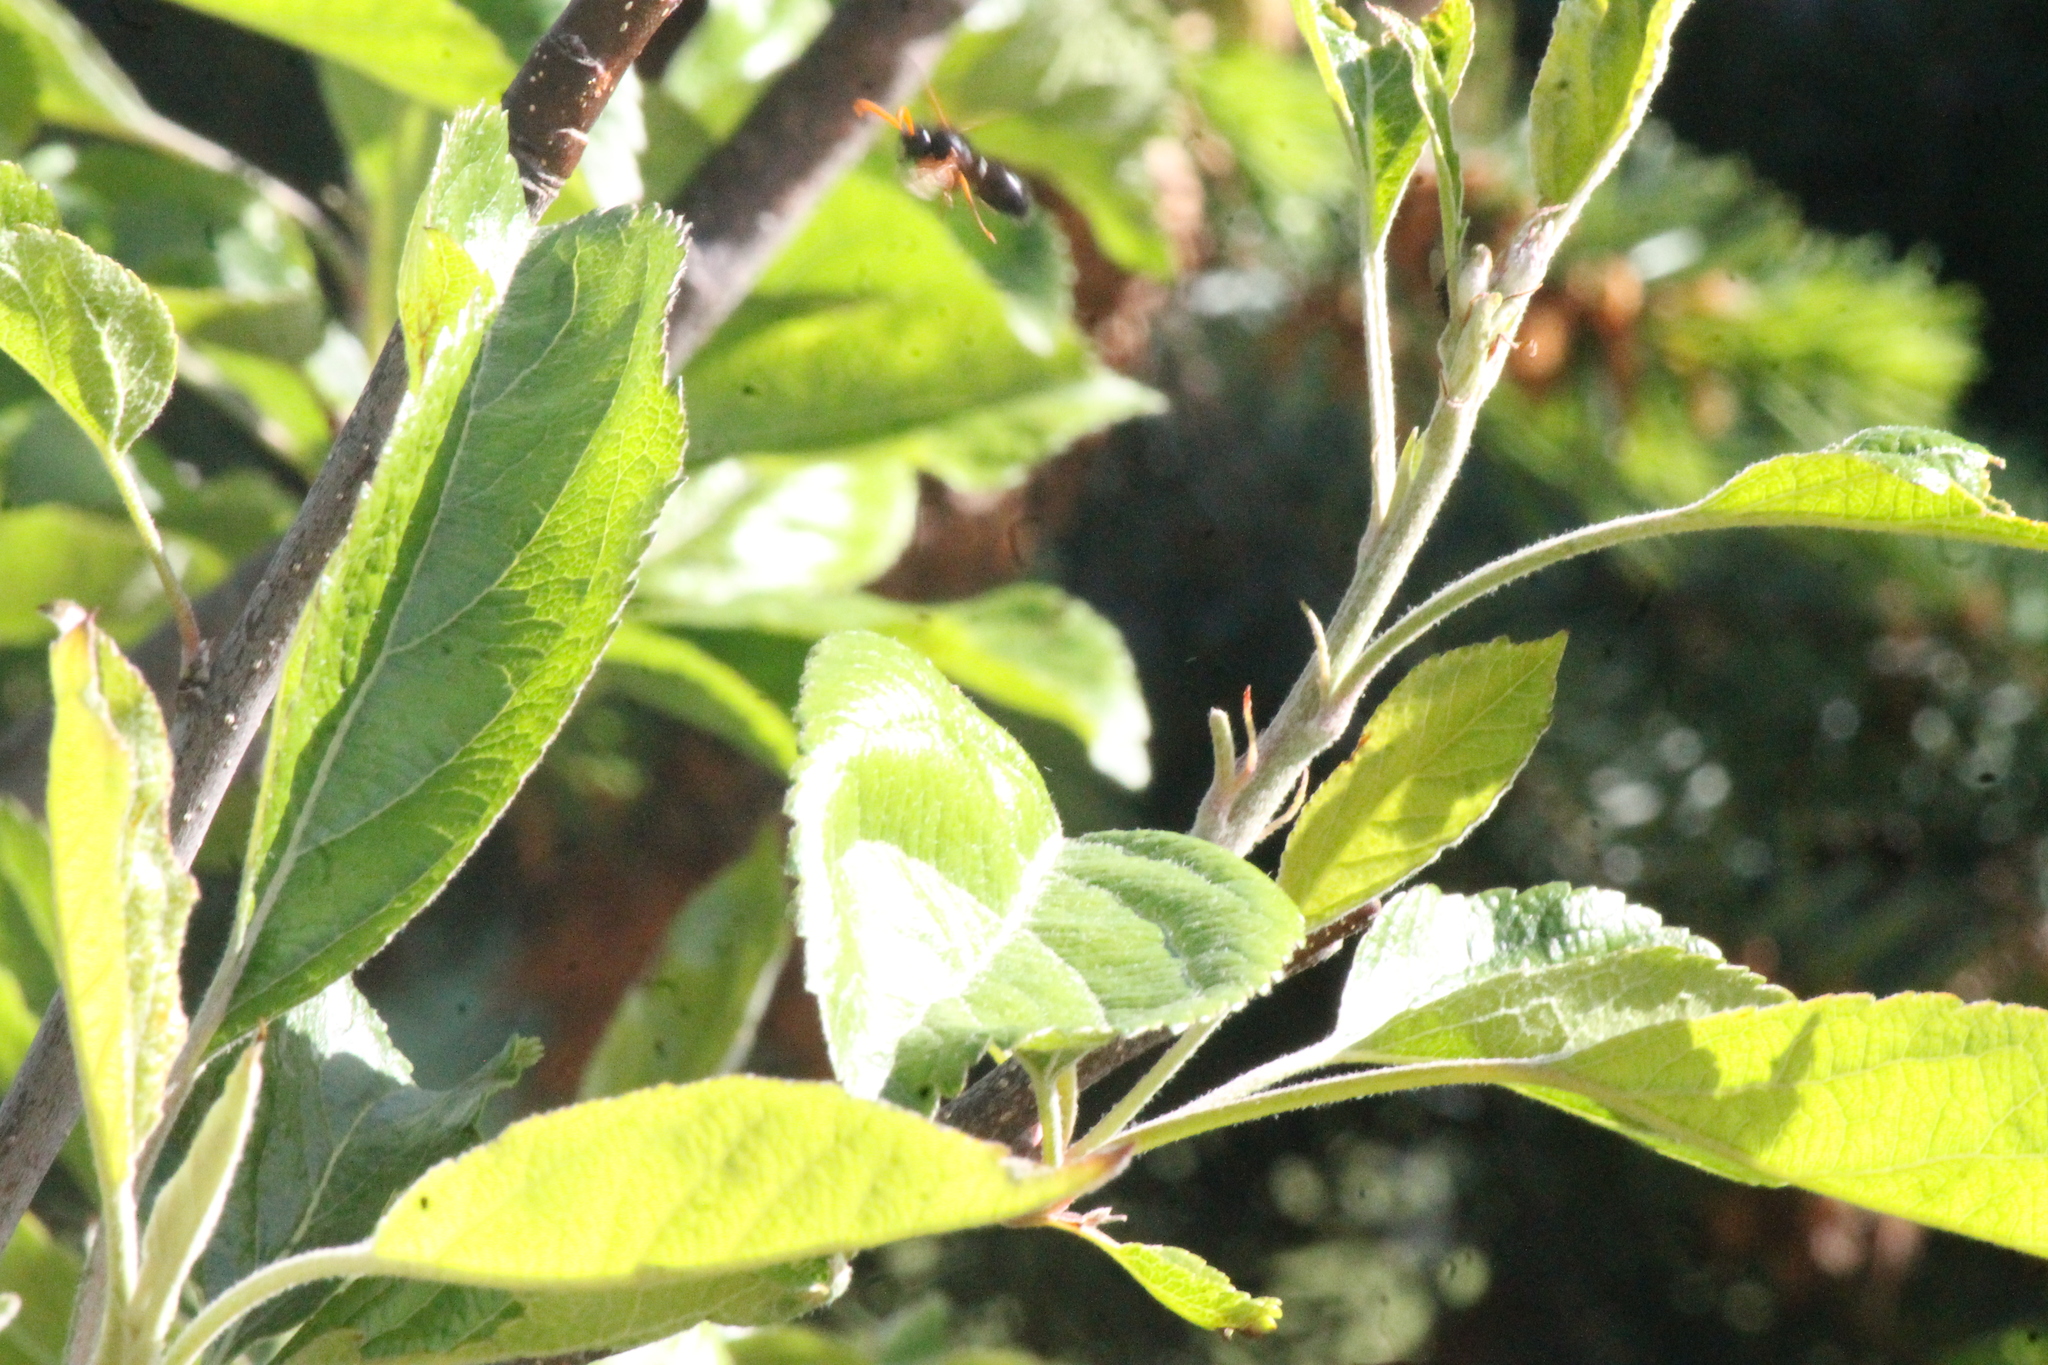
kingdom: Animalia
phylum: Arthropoda
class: Insecta
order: Hymenoptera
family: Vespidae
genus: Hypodynerus
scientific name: Hypodynerus vespiformis
